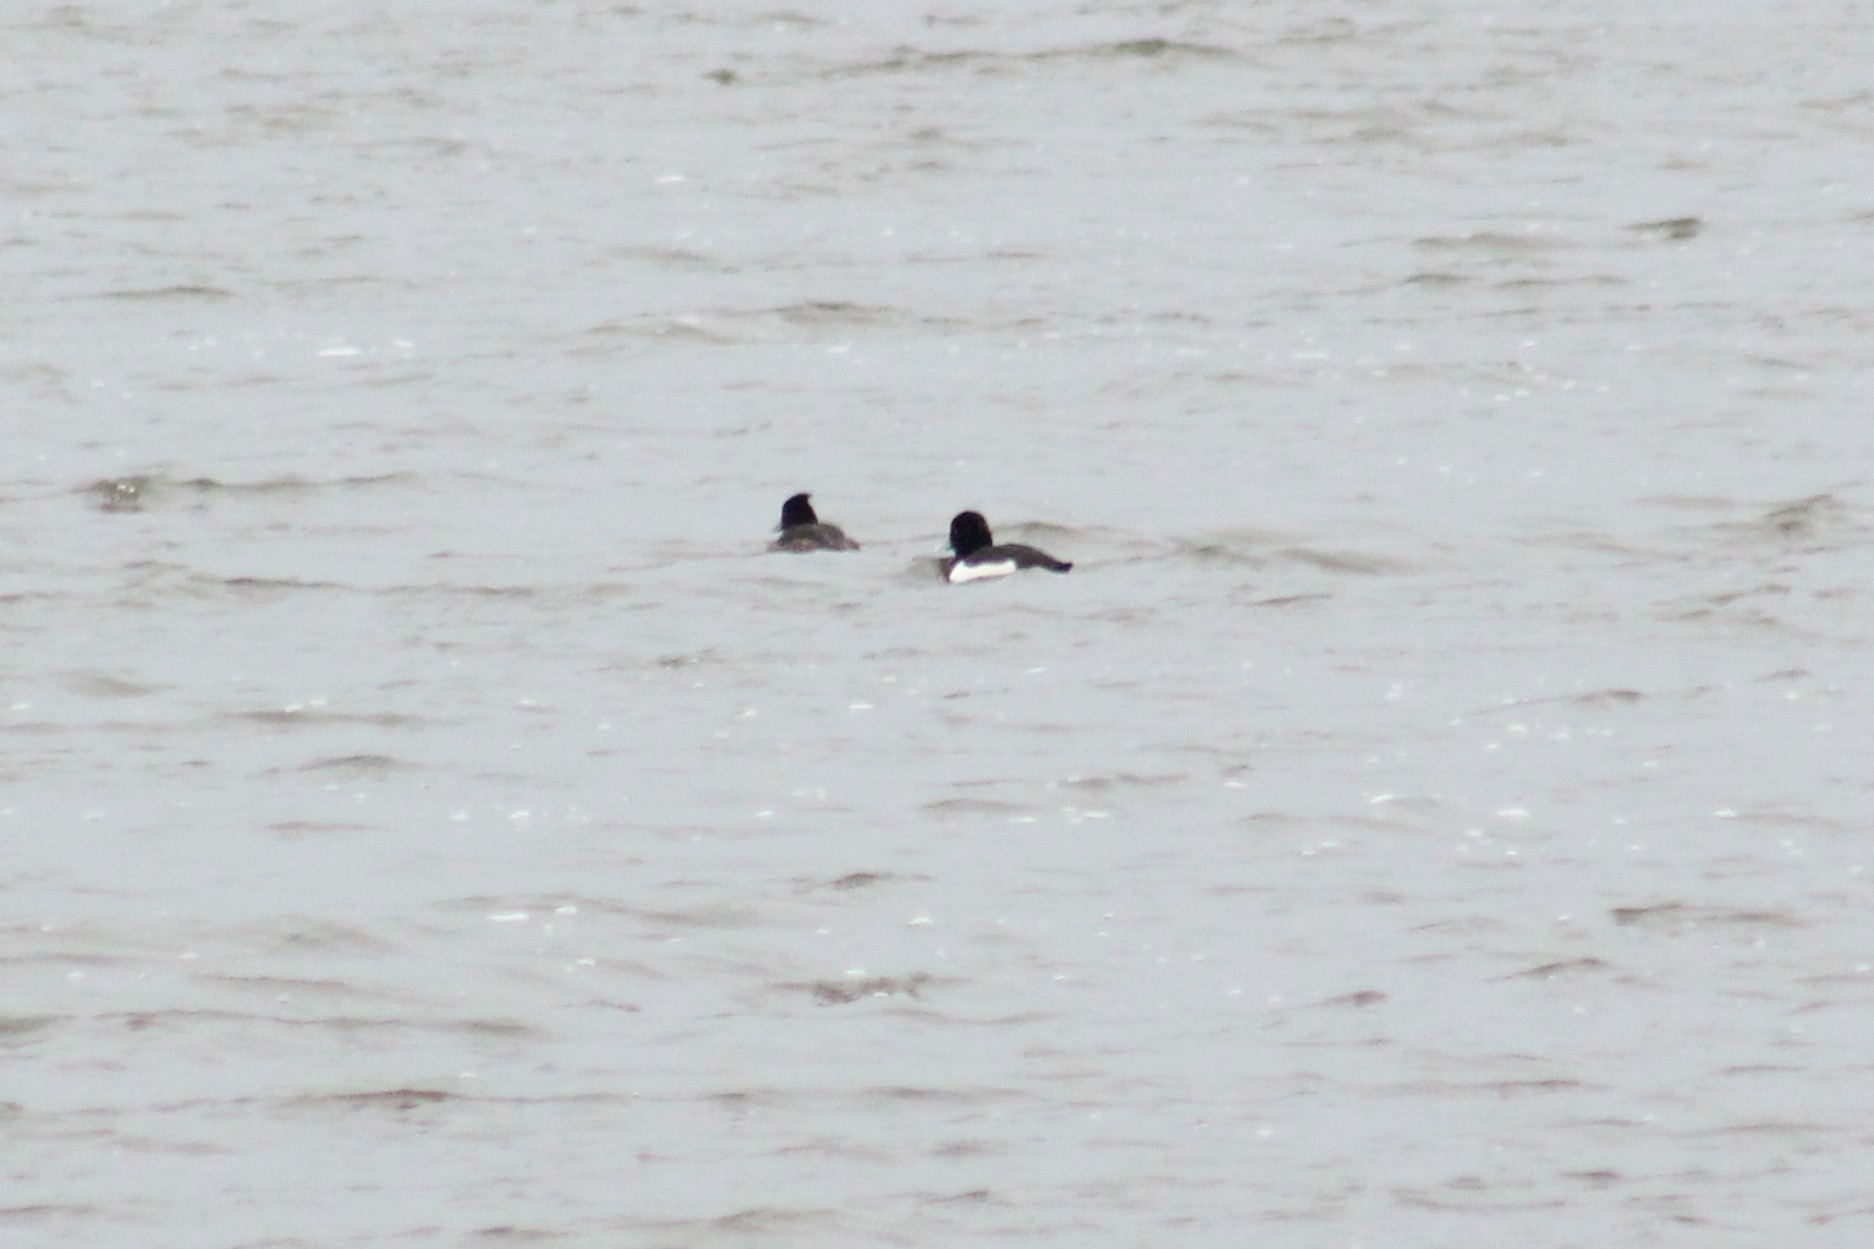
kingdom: Animalia
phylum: Chordata
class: Aves
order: Anseriformes
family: Anatidae
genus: Aythya
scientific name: Aythya fuligula
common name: Tufted duck
